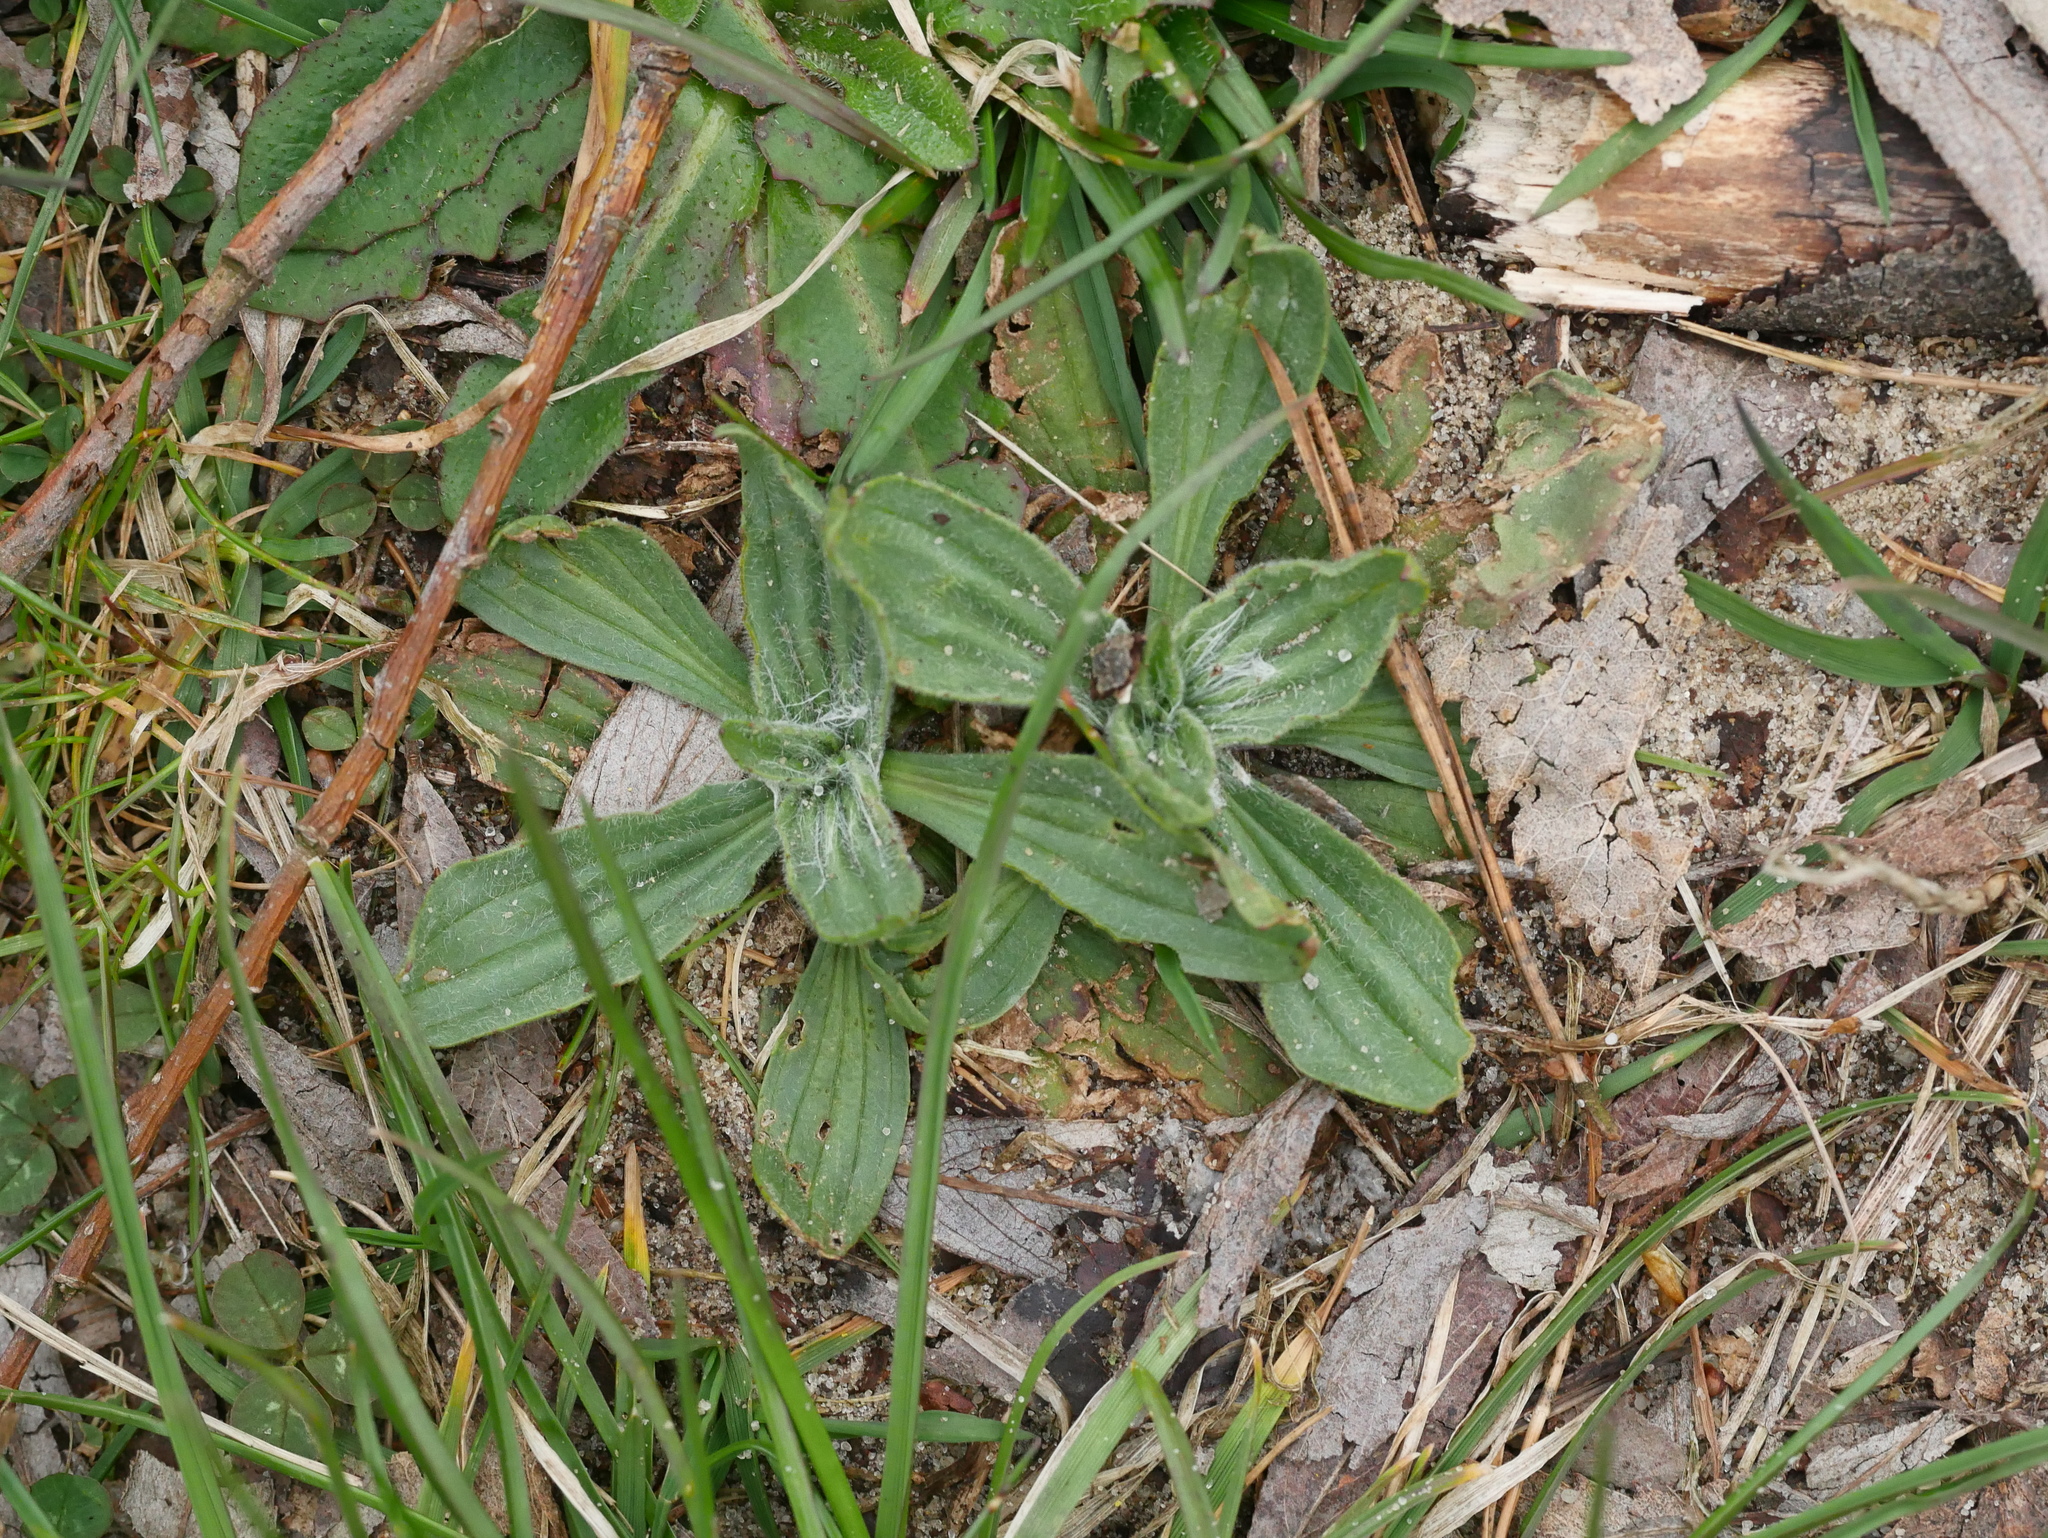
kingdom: Plantae
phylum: Tracheophyta
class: Magnoliopsida
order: Lamiales
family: Plantaginaceae
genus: Plantago
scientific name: Plantago lanceolata
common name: Ribwort plantain
